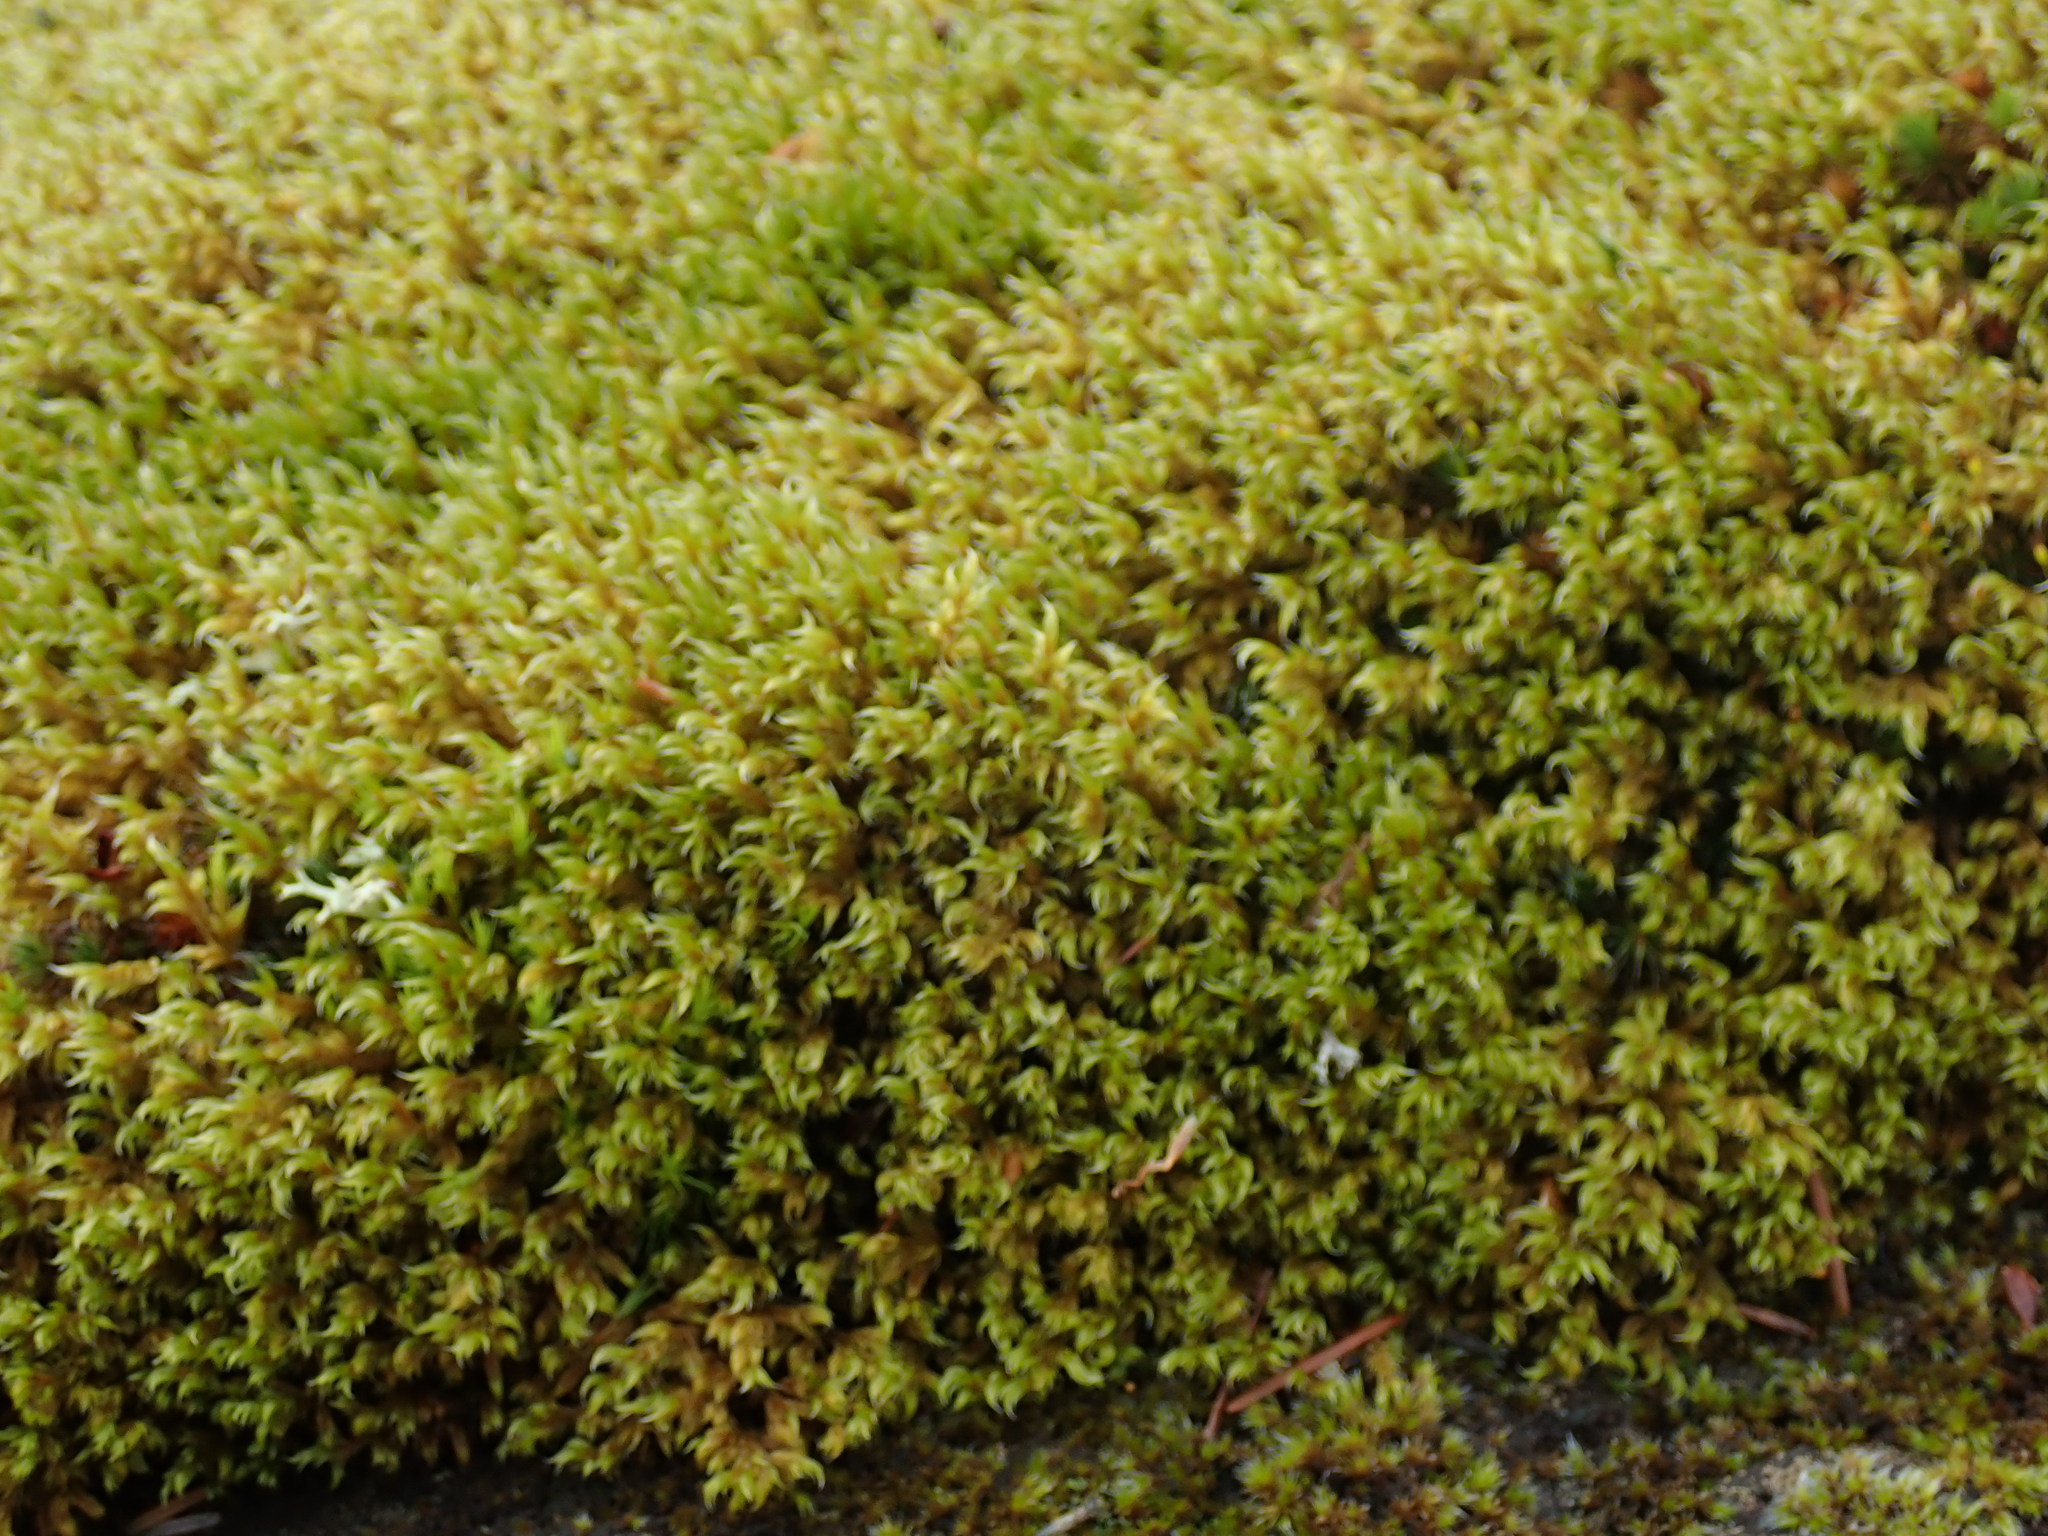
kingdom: Plantae
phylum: Bryophyta
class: Bryopsida
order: Grimmiales
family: Grimmiaceae
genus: Racomitrium
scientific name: Racomitrium lanuginosum
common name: Hoary rock moss
